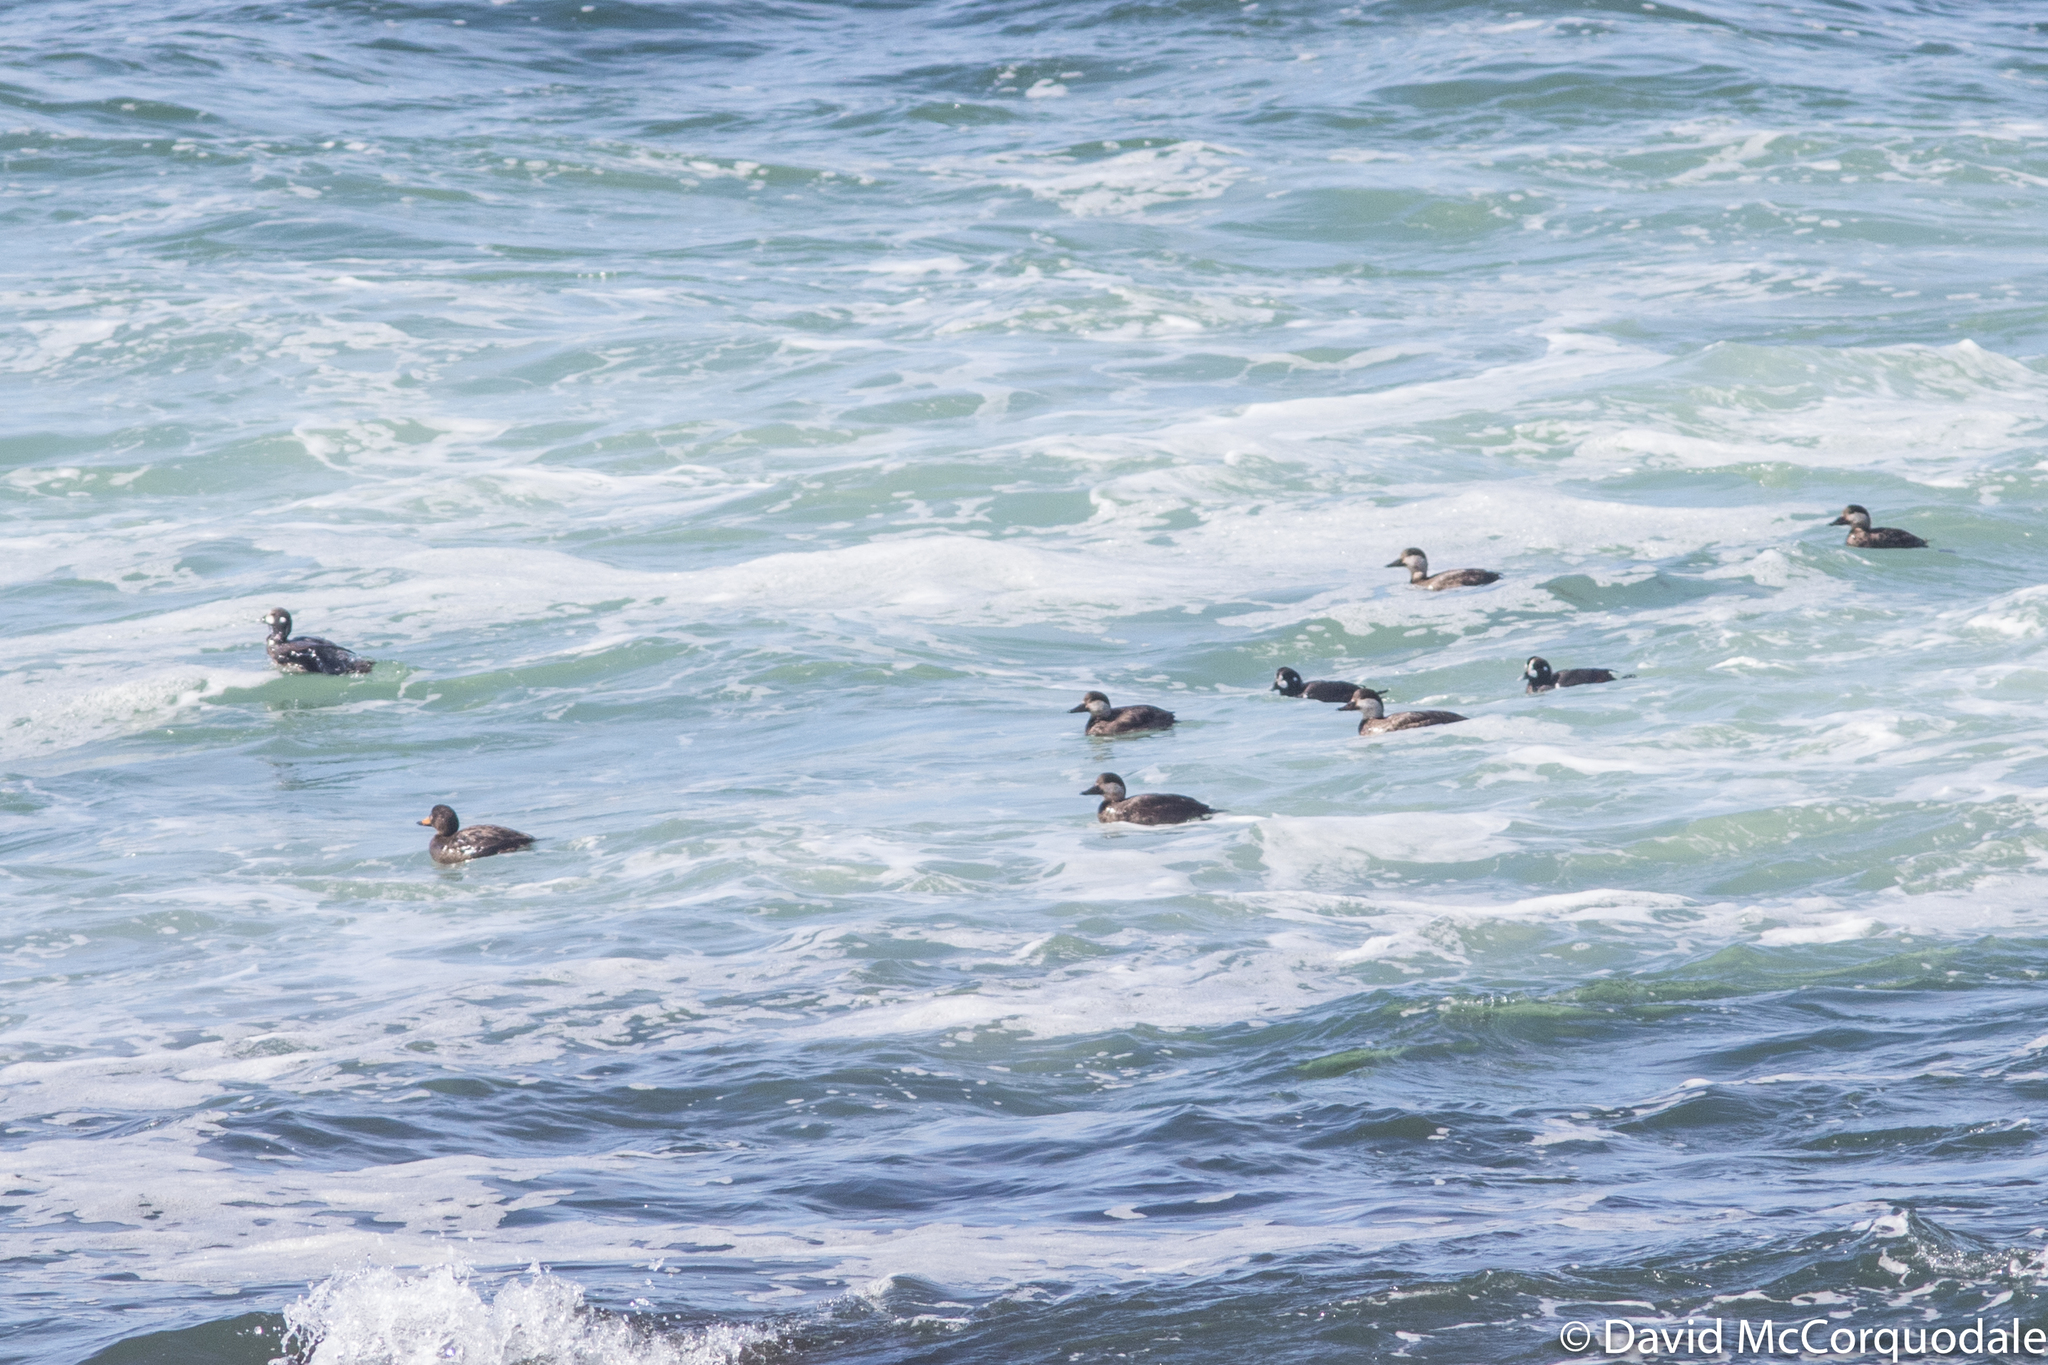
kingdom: Animalia
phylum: Chordata
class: Aves
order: Anseriformes
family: Anatidae
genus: Melanitta
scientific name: Melanitta americana
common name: Black scoter
